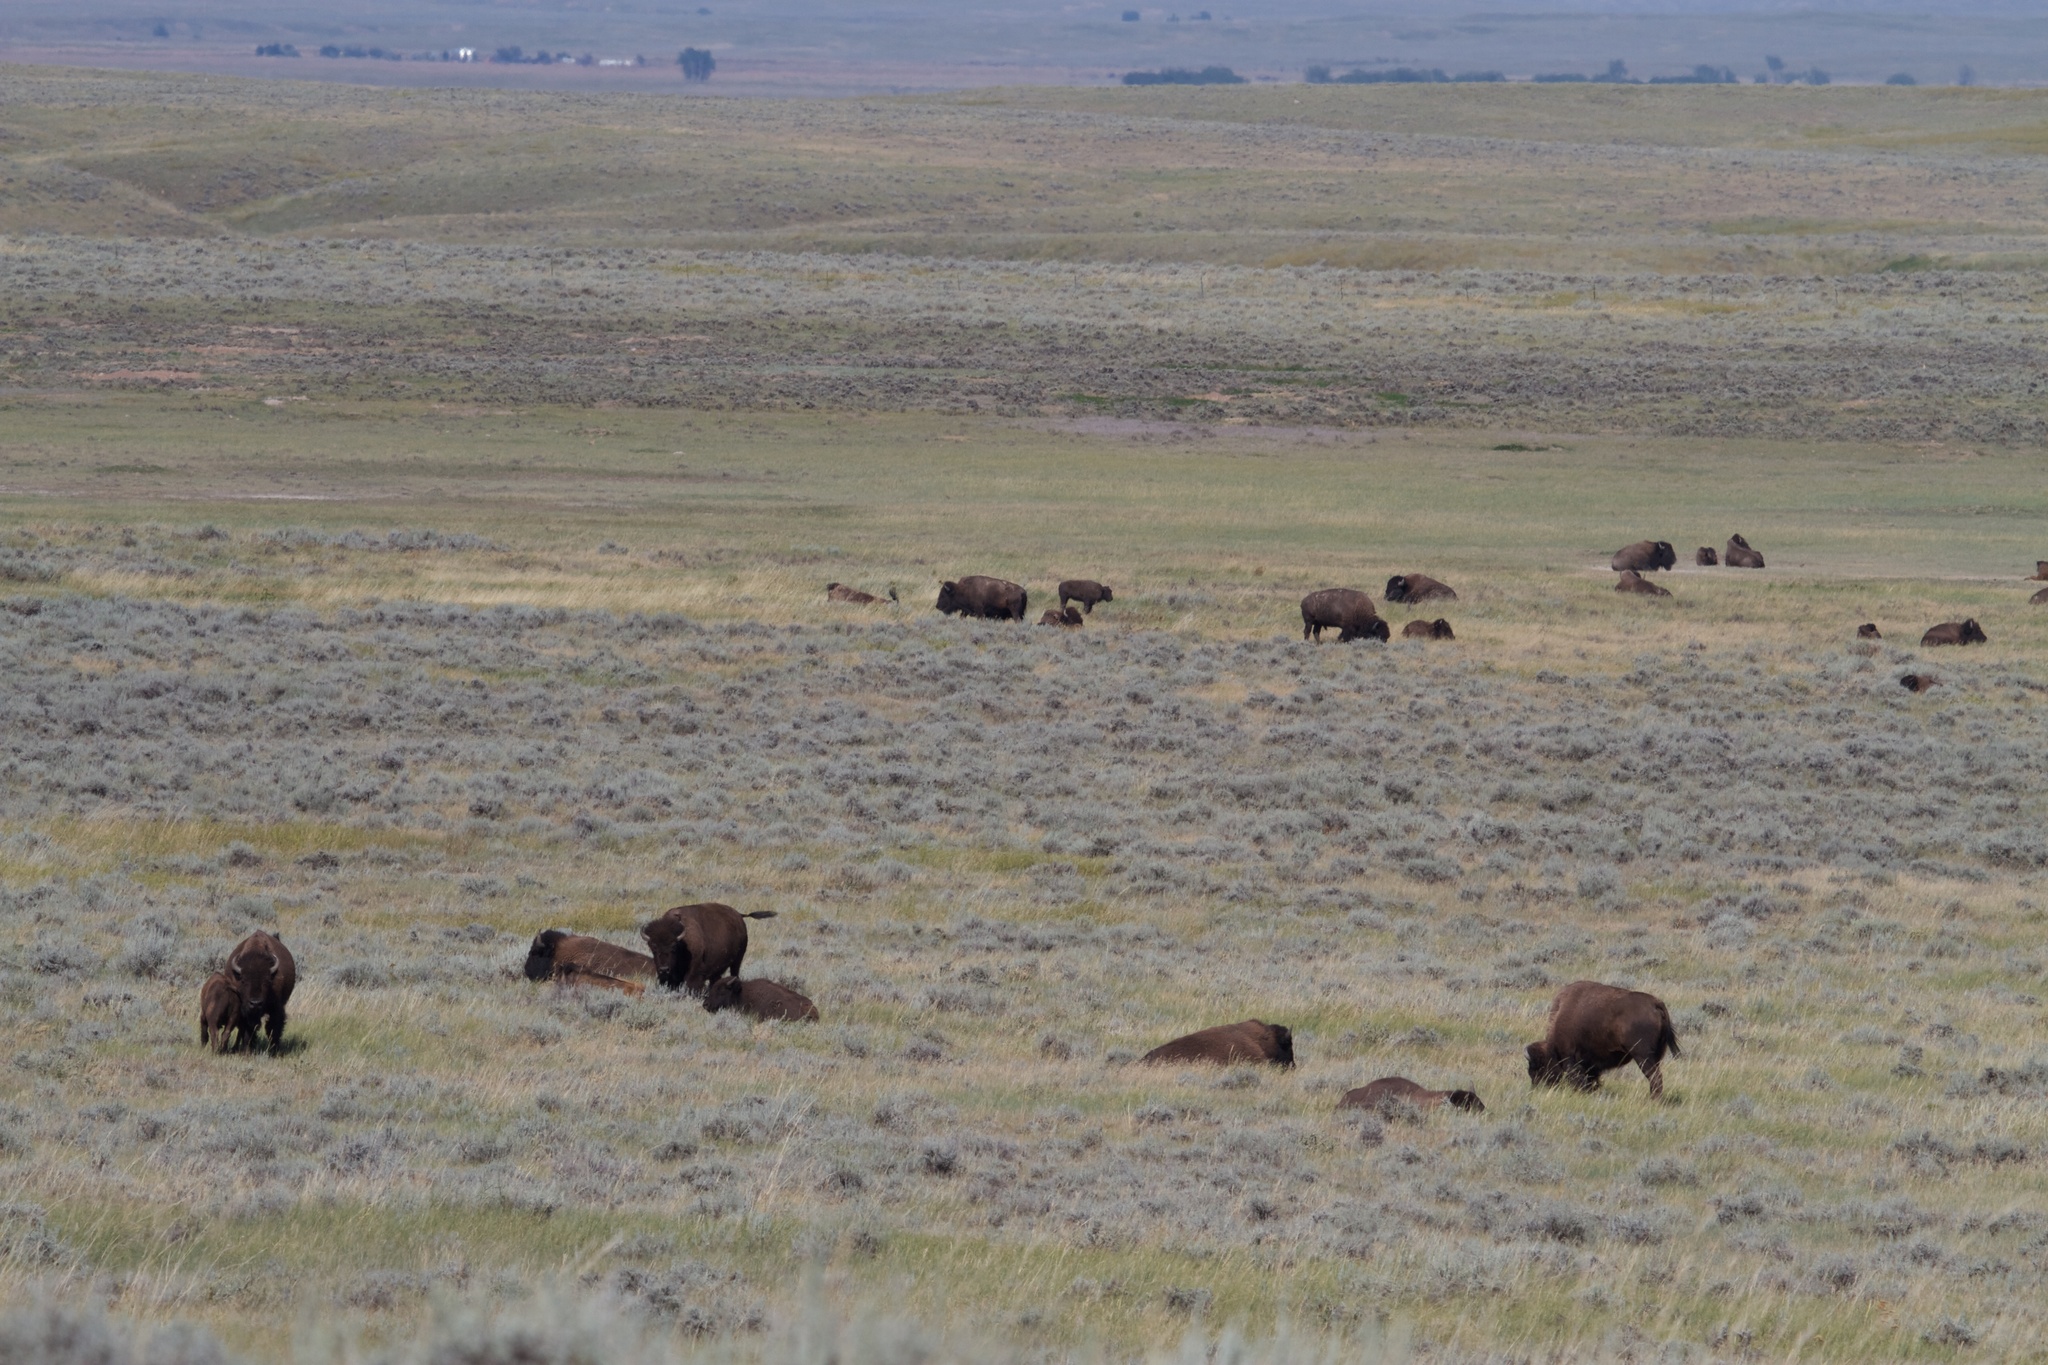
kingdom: Animalia
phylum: Chordata
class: Mammalia
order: Artiodactyla
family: Bovidae
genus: Bison
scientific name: Bison bison
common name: American bison
